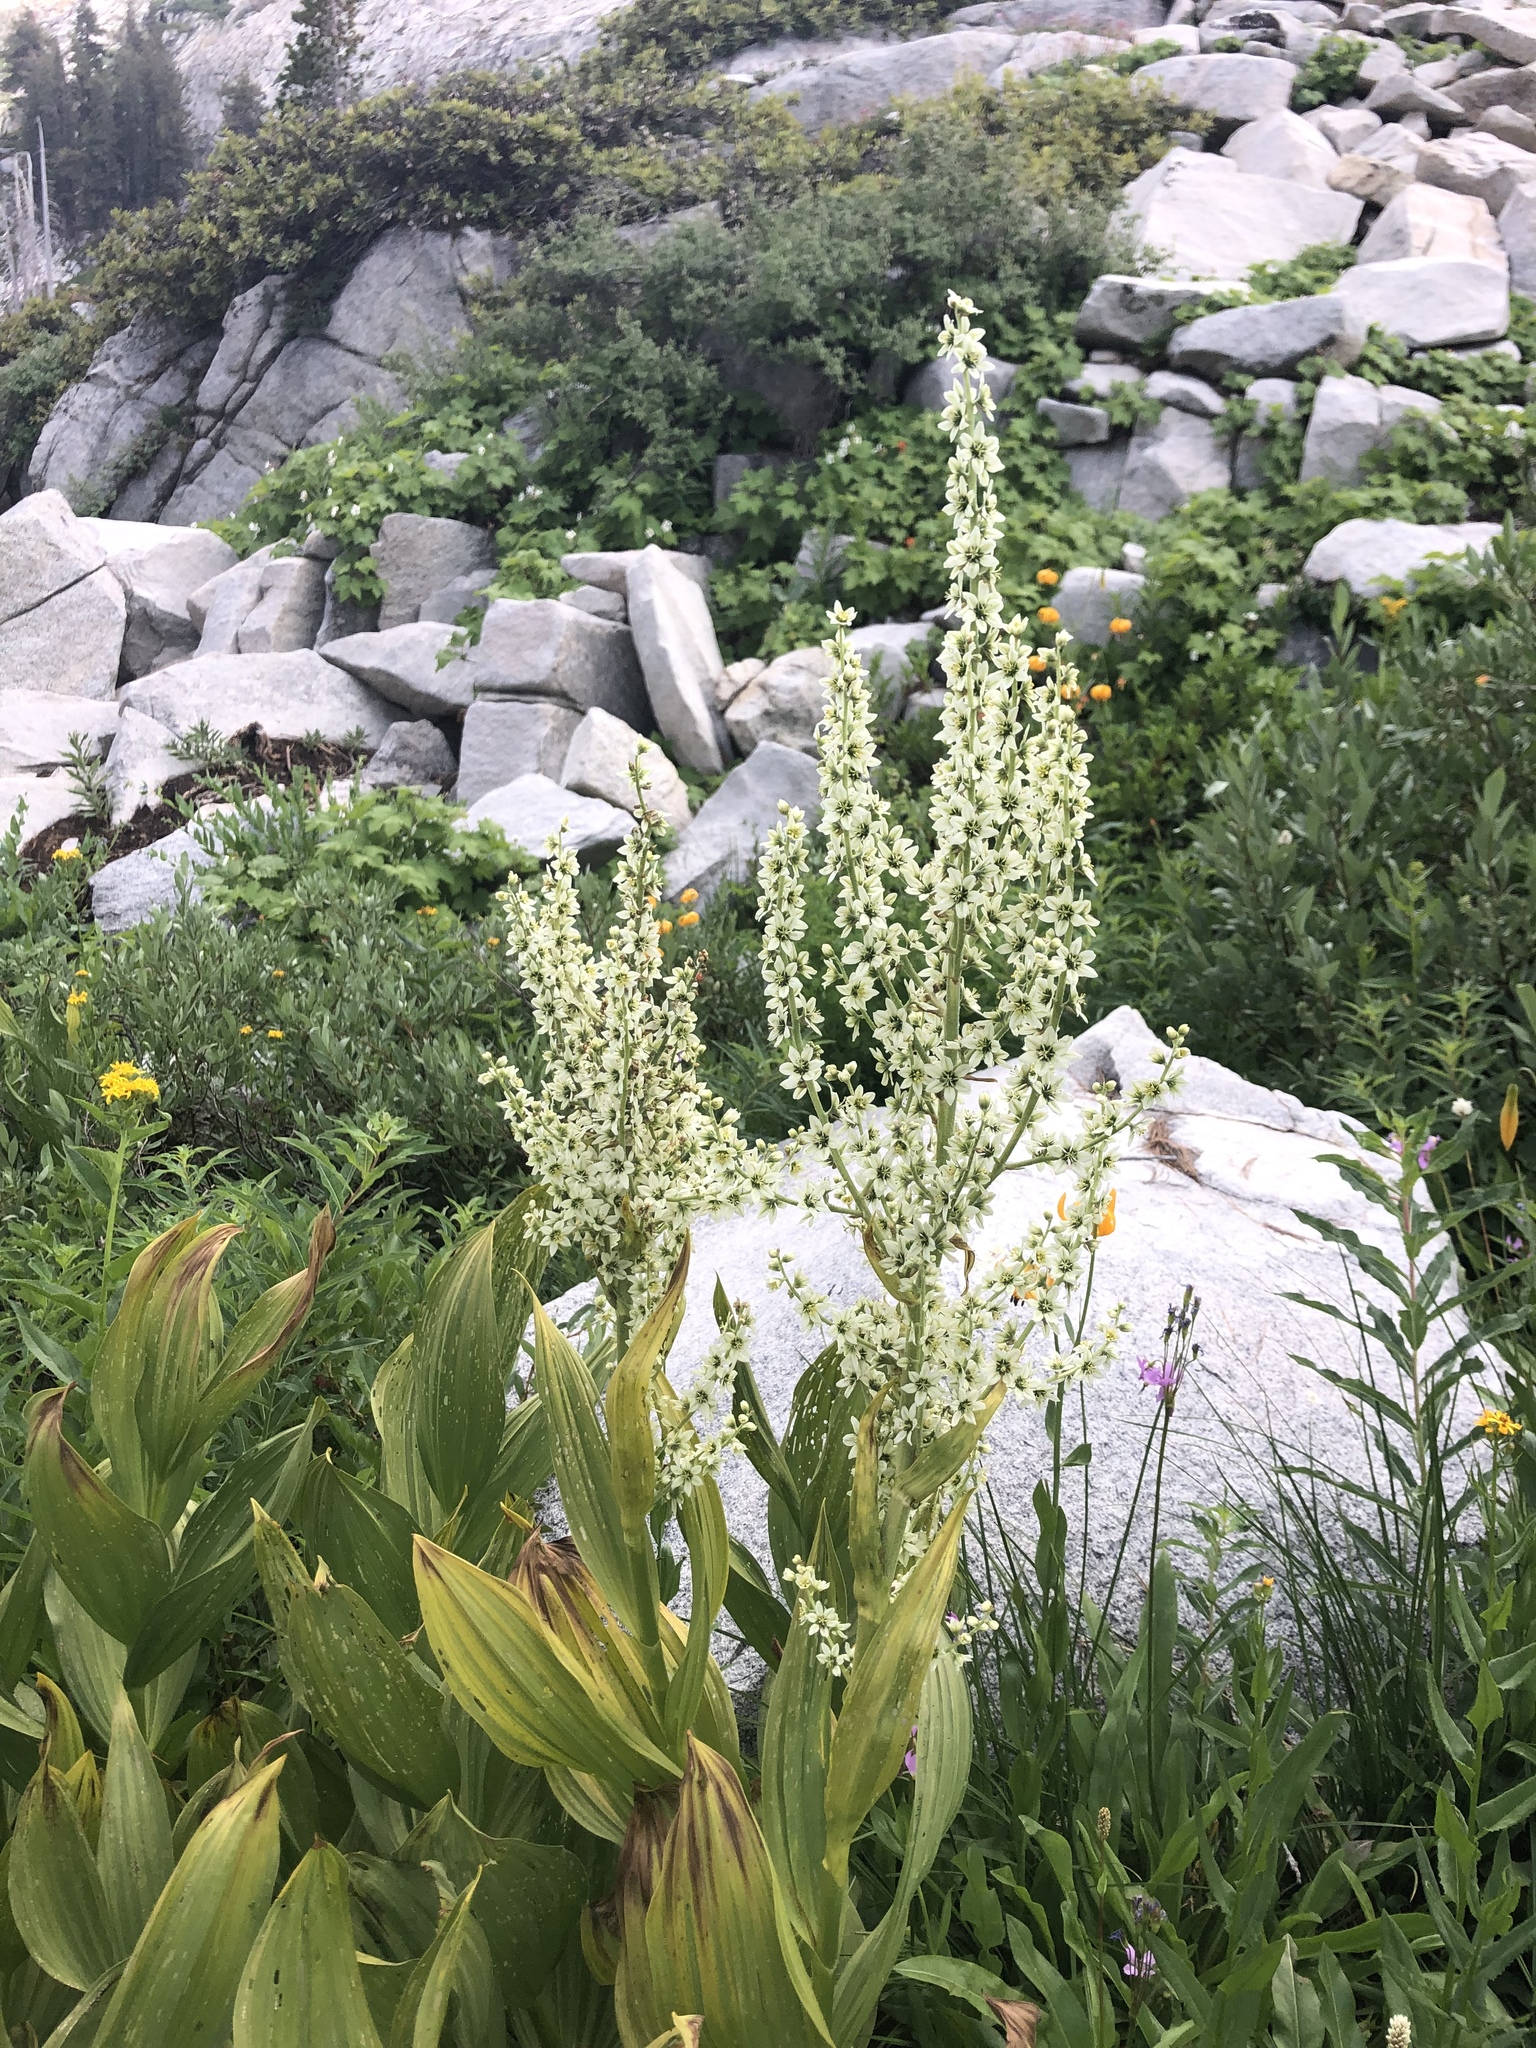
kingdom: Plantae
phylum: Tracheophyta
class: Liliopsida
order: Liliales
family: Melanthiaceae
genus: Veratrum
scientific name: Veratrum californicum
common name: California veratrum
